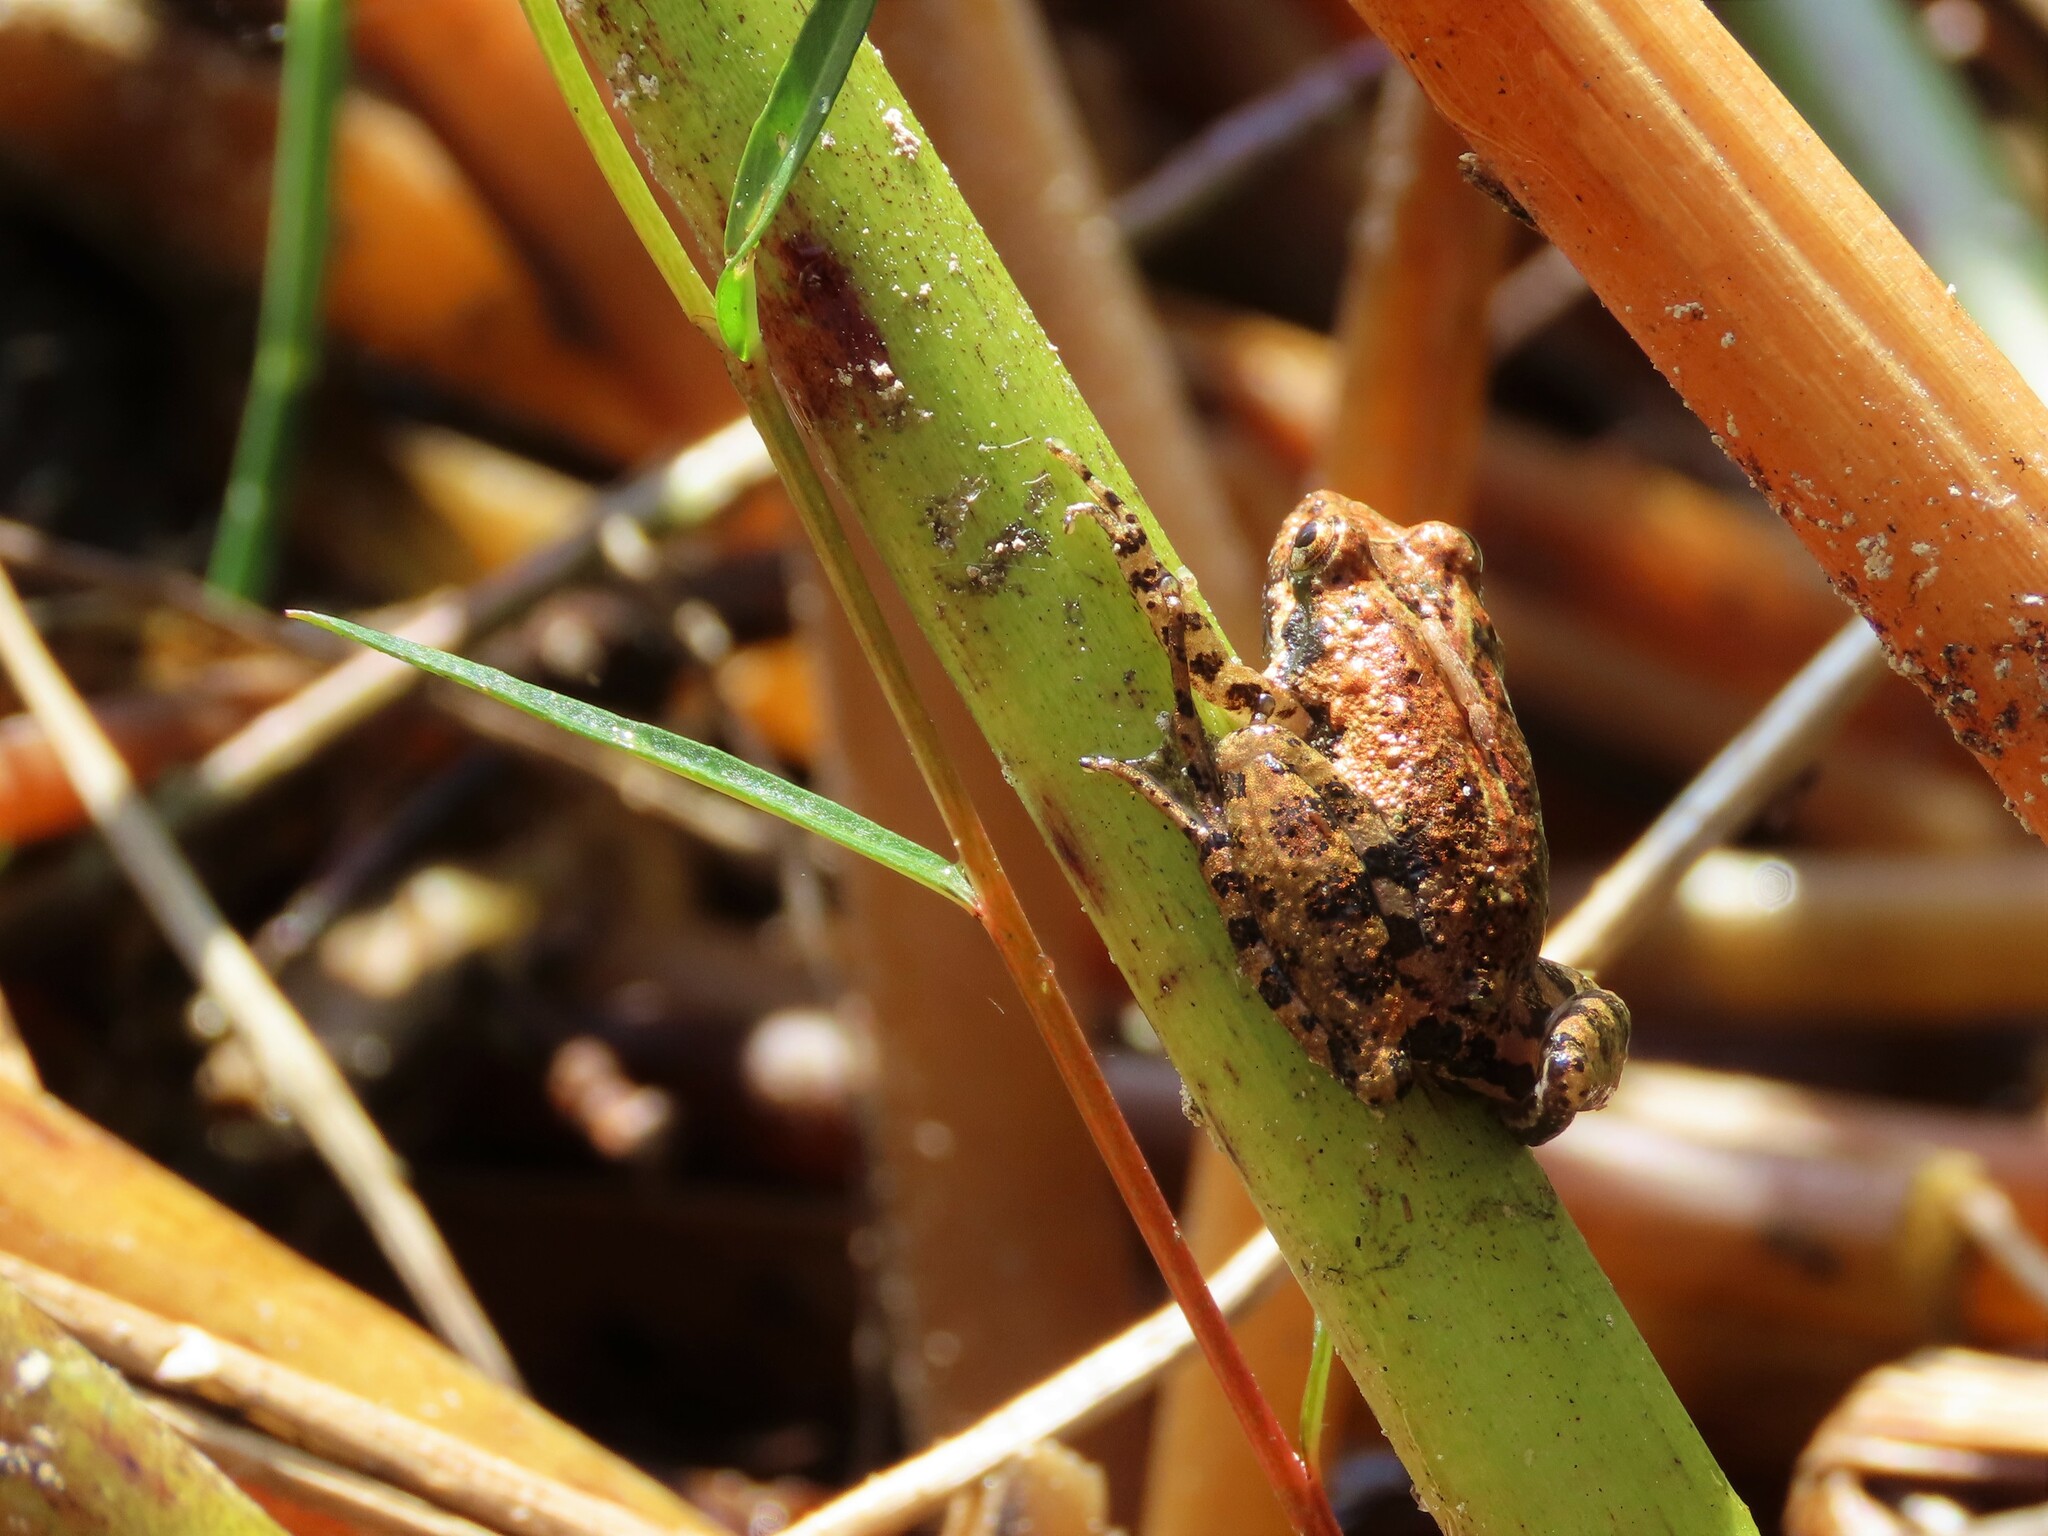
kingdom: Animalia
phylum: Chordata
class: Amphibia
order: Anura
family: Hylidae
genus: Acris
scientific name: Acris gryllus
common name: Southern cricket frog
